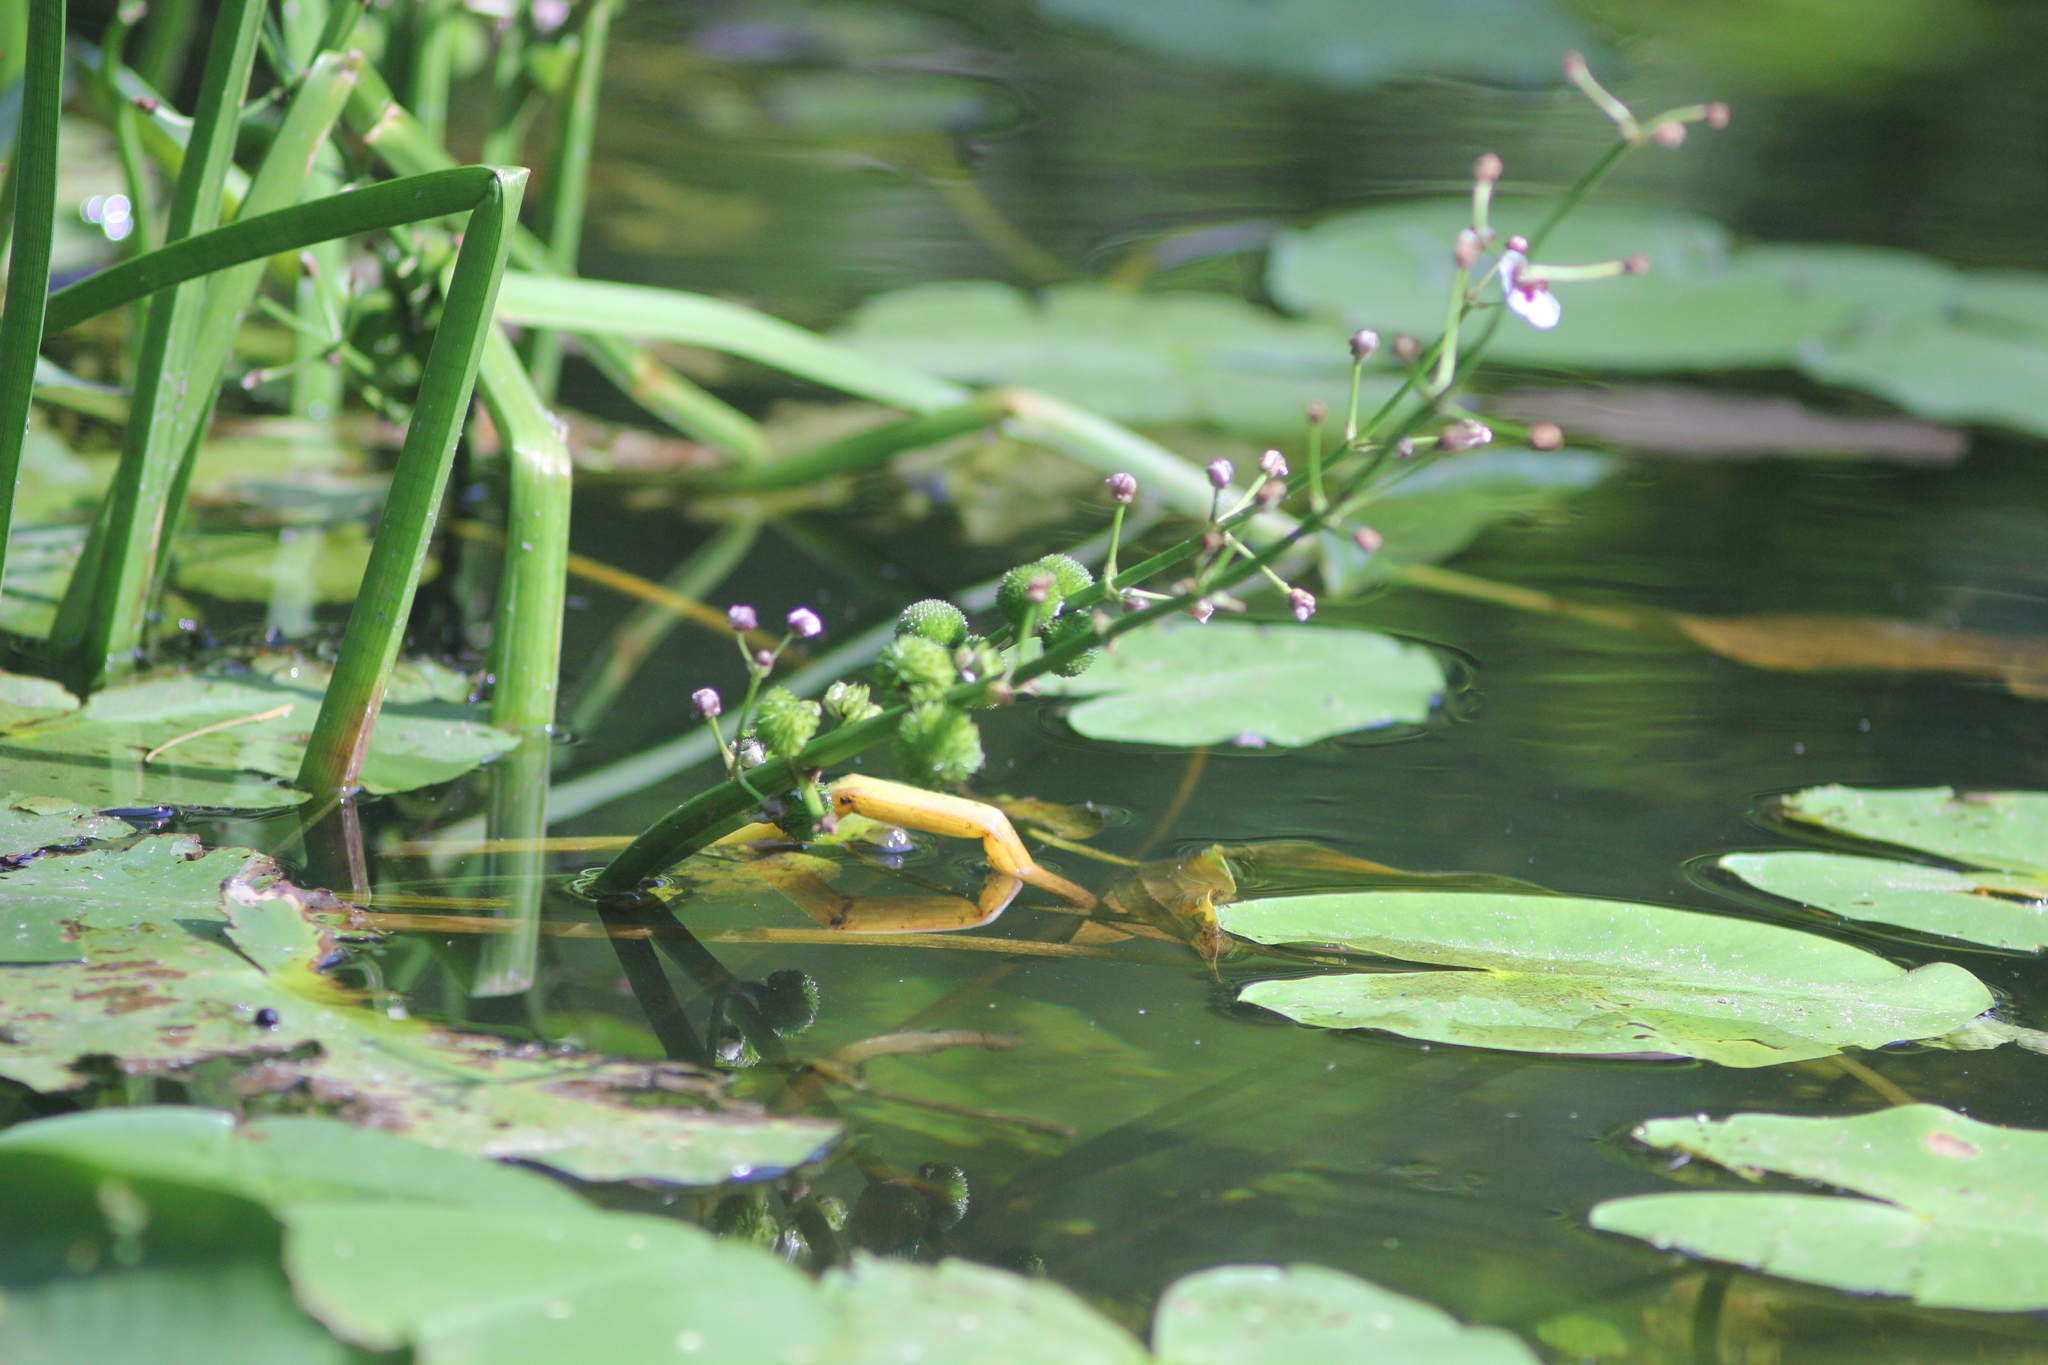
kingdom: Plantae
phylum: Tracheophyta
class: Liliopsida
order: Alismatales
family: Alismataceae
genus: Sagittaria
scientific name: Sagittaria sagittifolia
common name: Arrowhead
